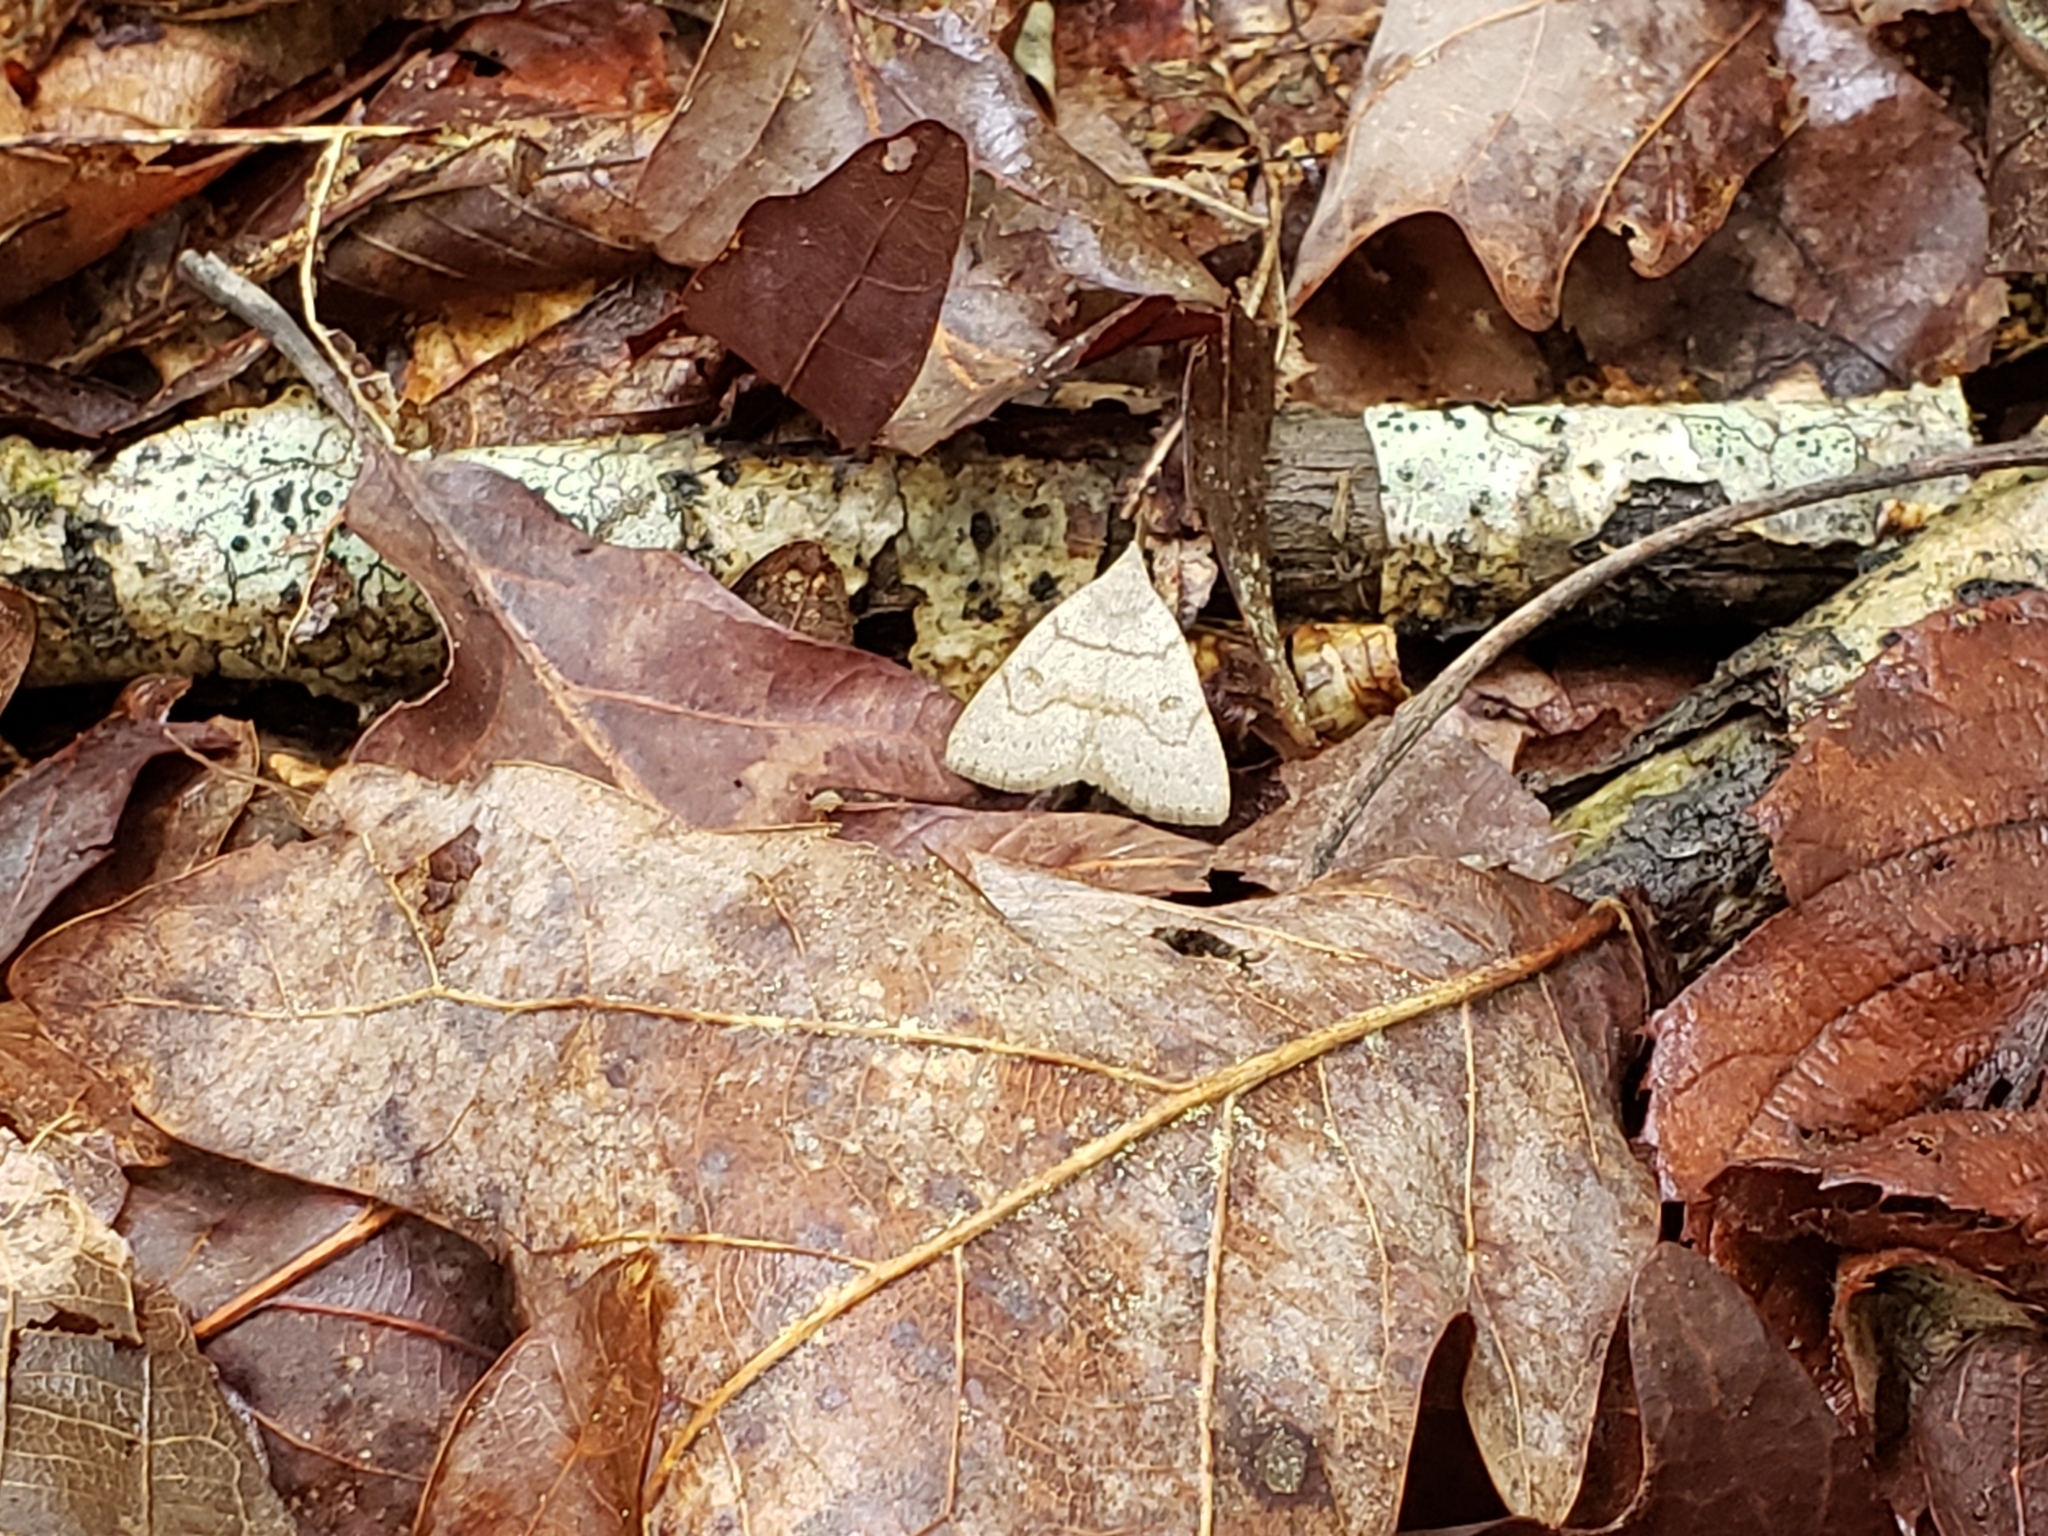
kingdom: Animalia
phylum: Arthropoda
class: Insecta
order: Lepidoptera
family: Erebidae
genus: Macrochilo
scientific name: Macrochilo morbidalis
